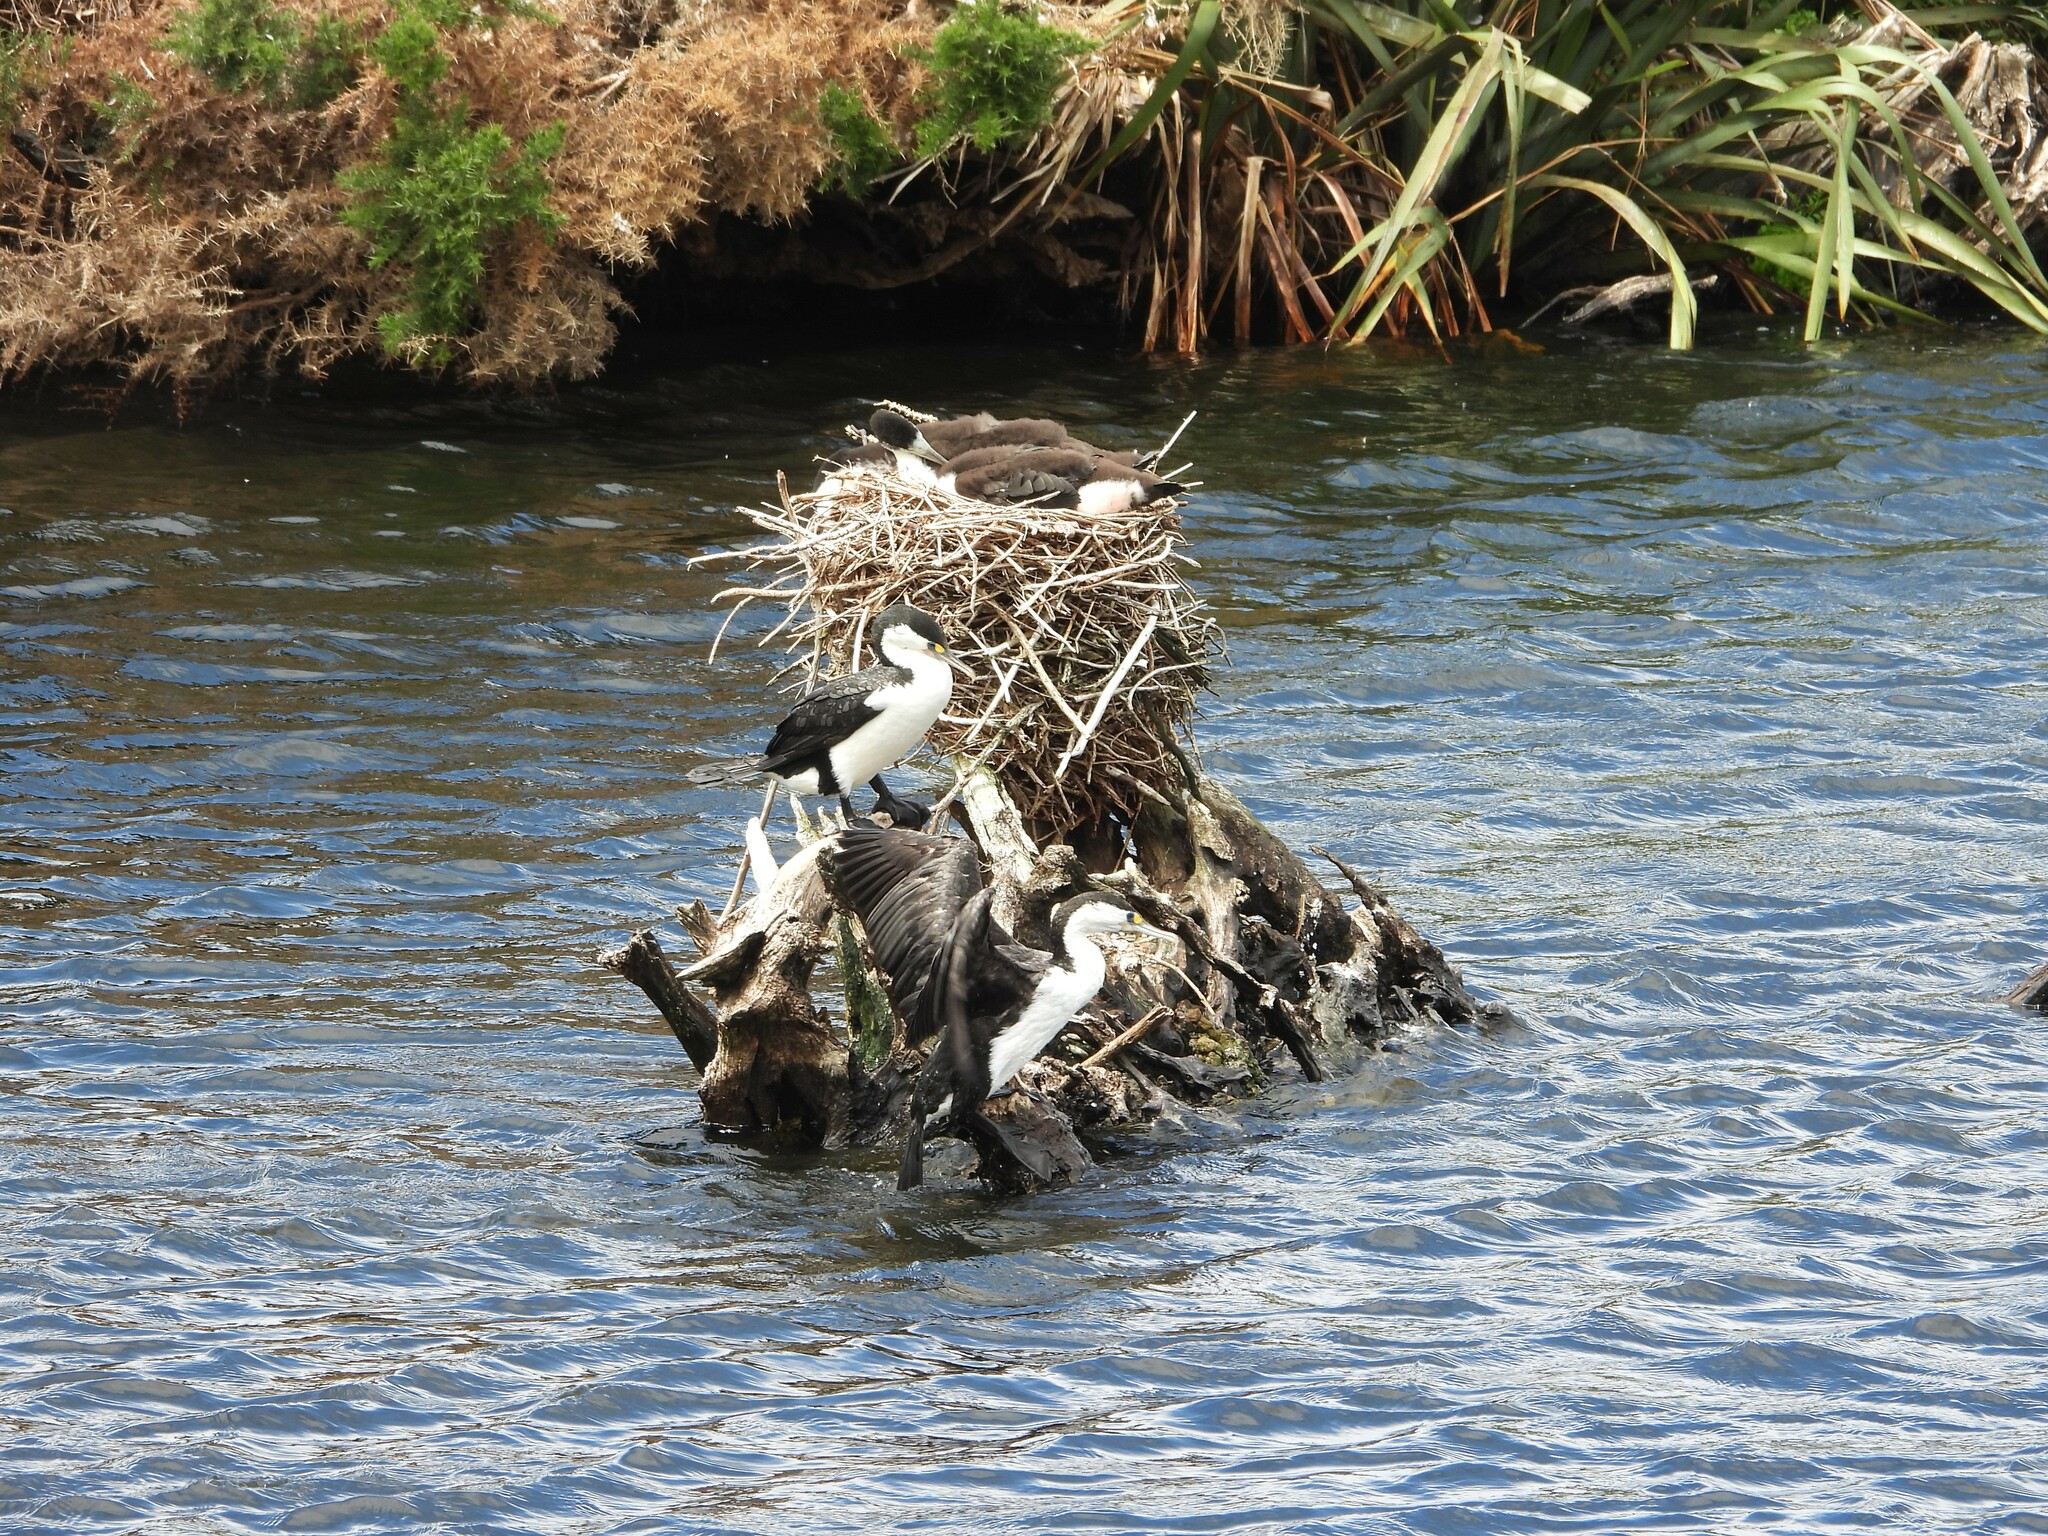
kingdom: Animalia
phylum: Chordata
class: Aves
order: Suliformes
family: Phalacrocoracidae
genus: Phalacrocorax
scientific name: Phalacrocorax varius
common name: Pied cormorant
